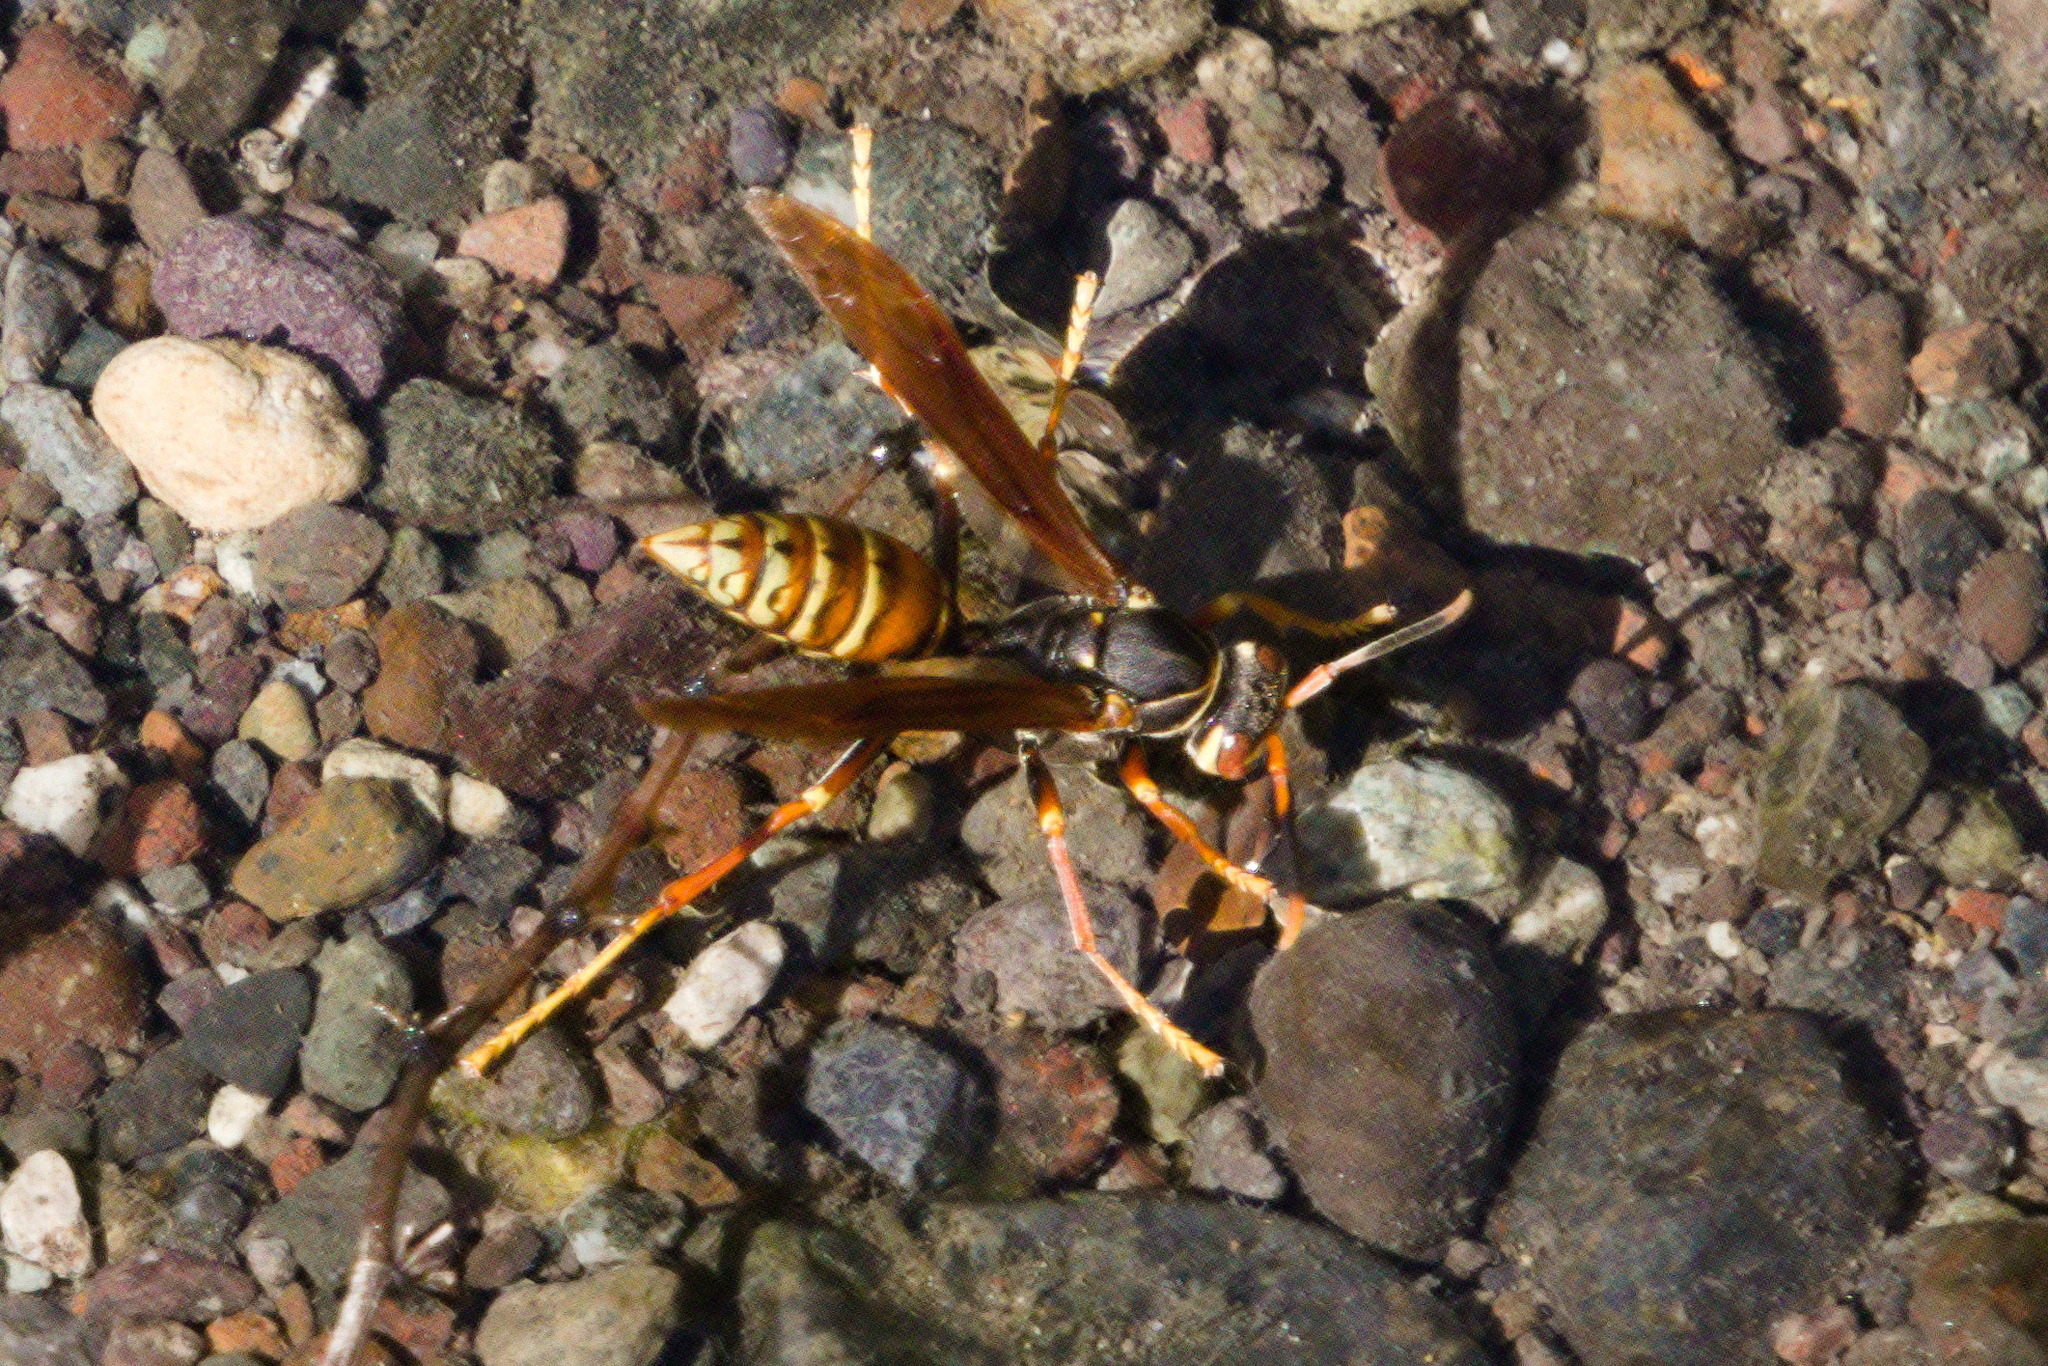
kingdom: Animalia
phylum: Arthropoda
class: Insecta
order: Hymenoptera
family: Eumenidae
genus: Polistes
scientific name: Polistes buyssoni
